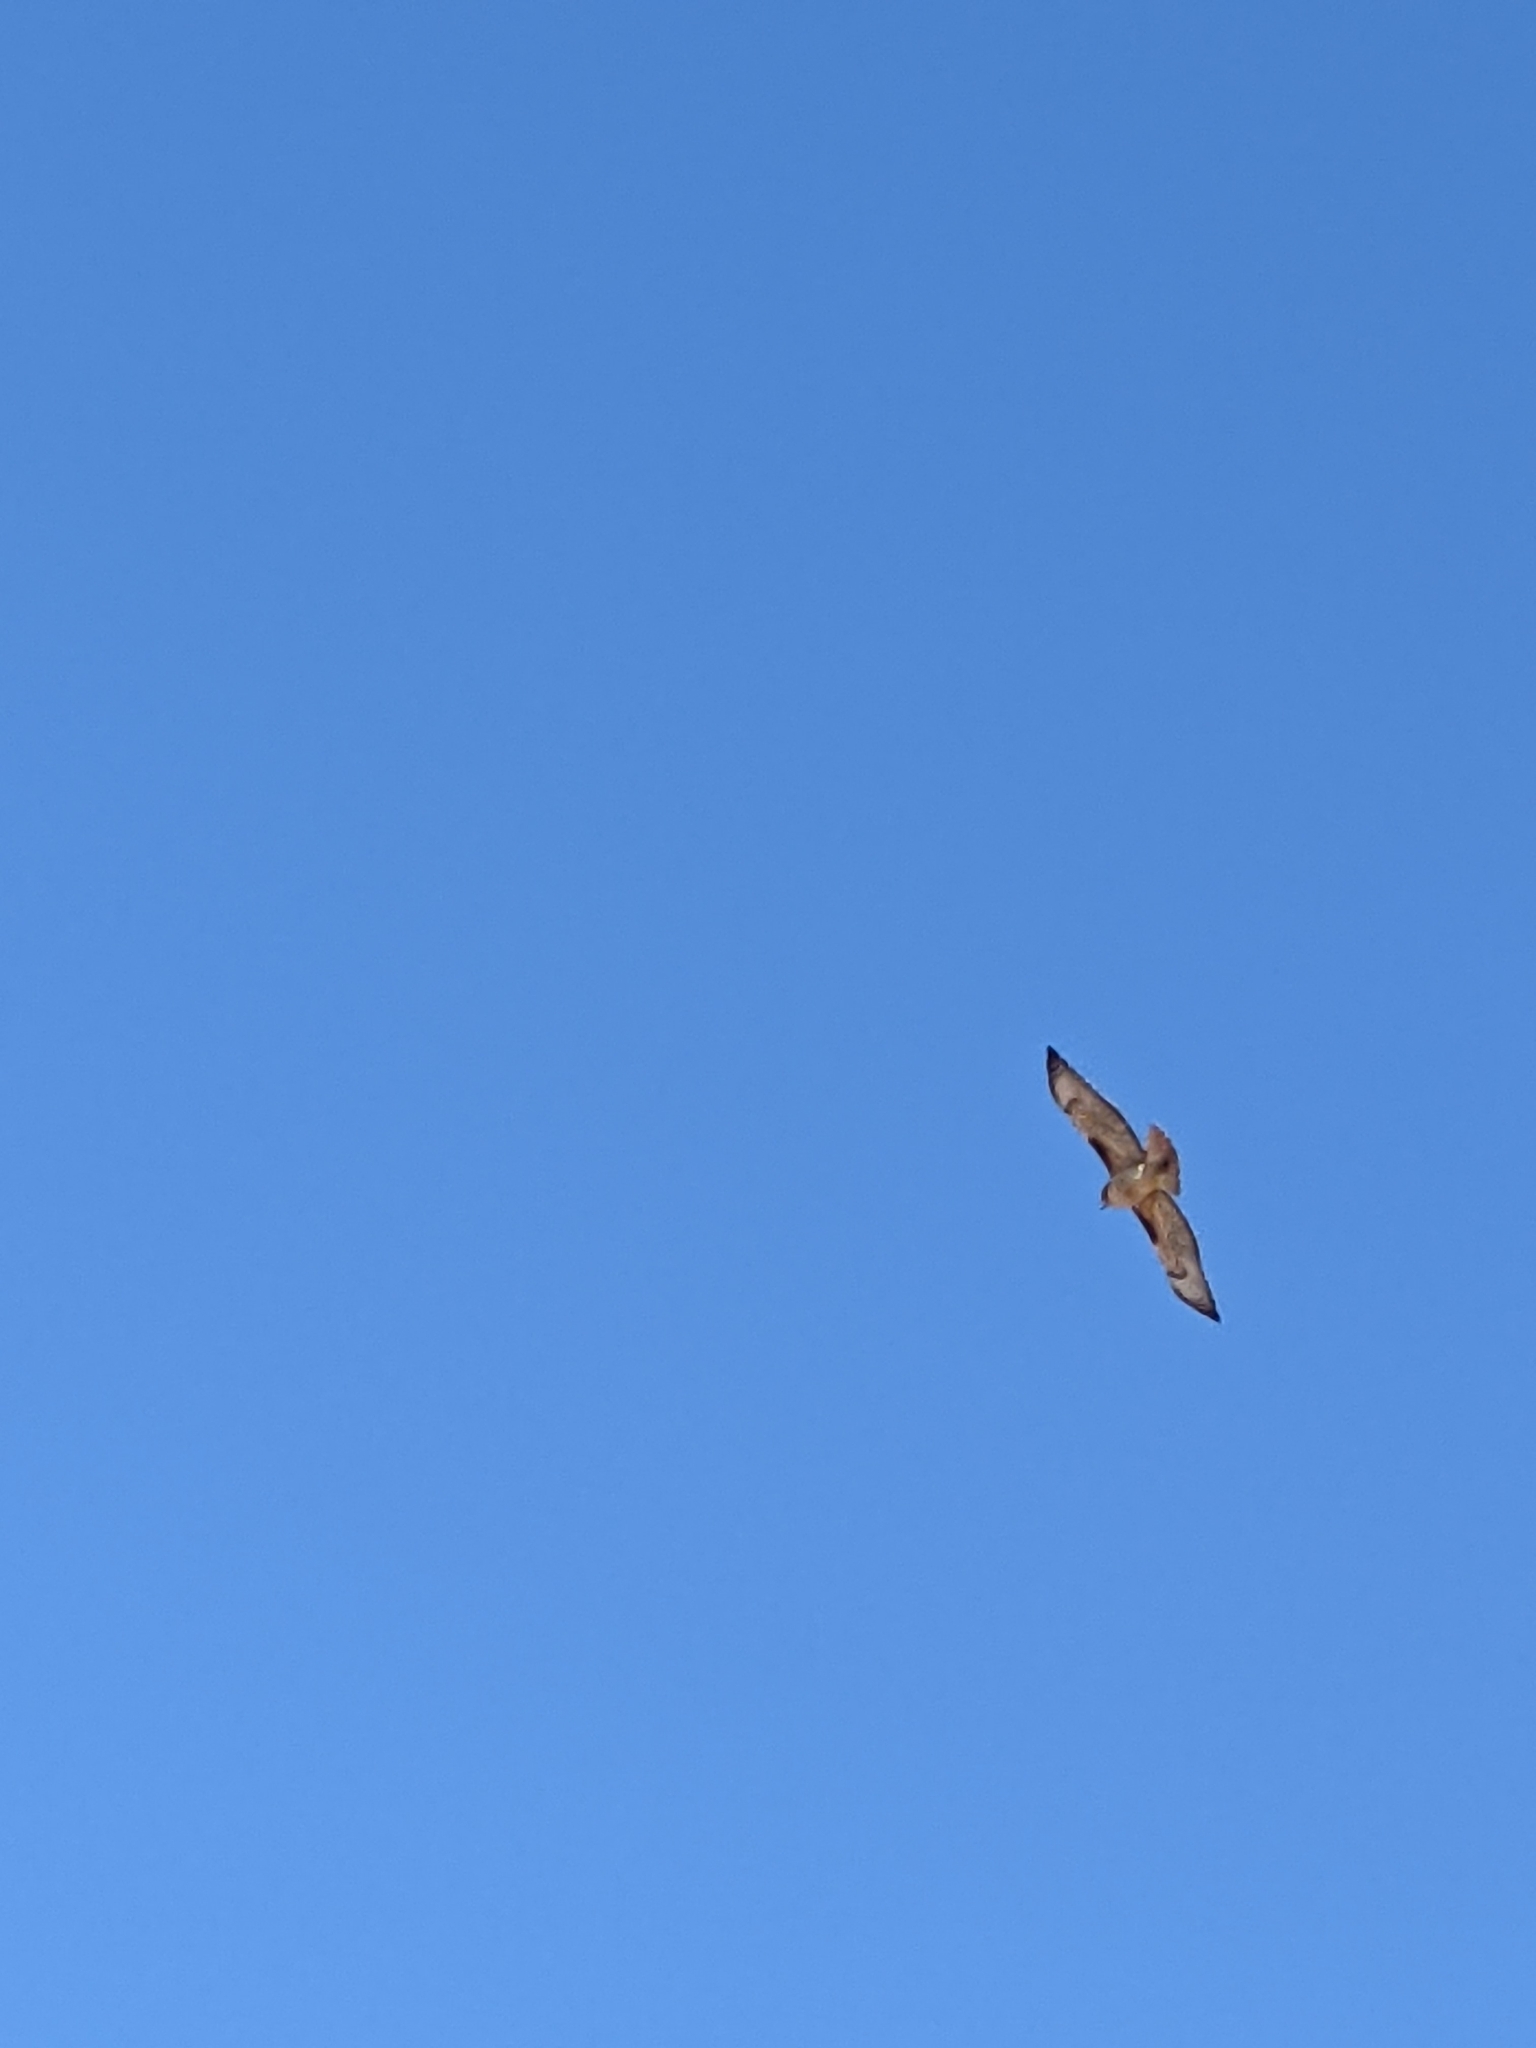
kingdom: Animalia
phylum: Chordata
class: Aves
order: Accipitriformes
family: Accipitridae
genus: Buteo
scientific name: Buteo jamaicensis
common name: Red-tailed hawk
